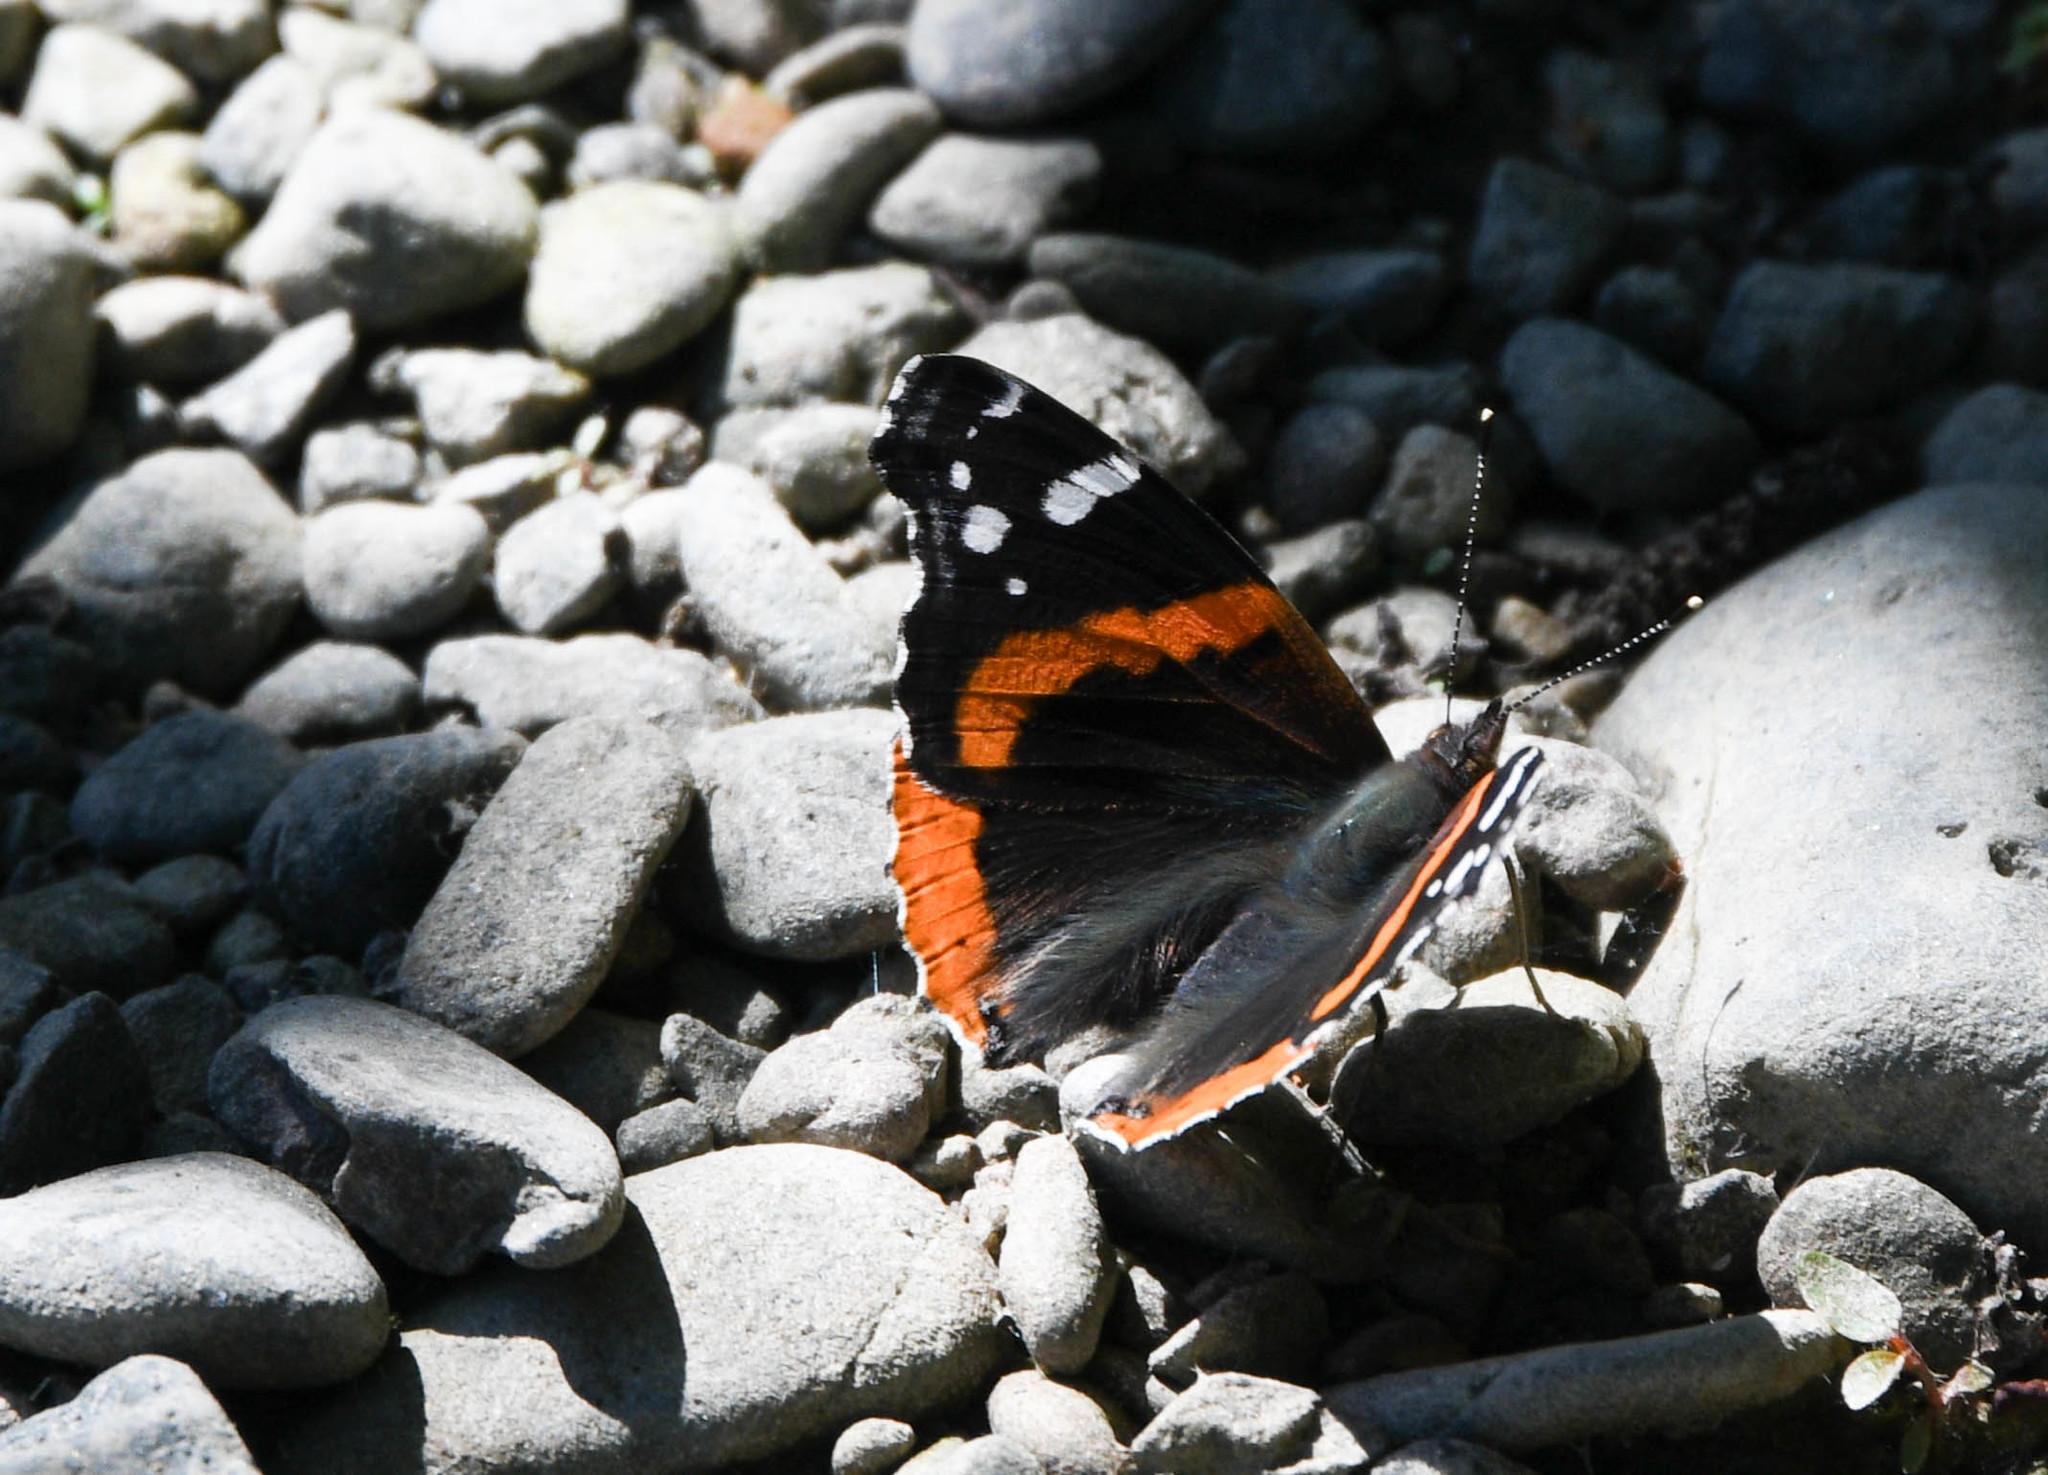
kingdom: Animalia
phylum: Arthropoda
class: Insecta
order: Lepidoptera
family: Nymphalidae
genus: Vanessa
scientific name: Vanessa atalanta
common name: Red admiral
